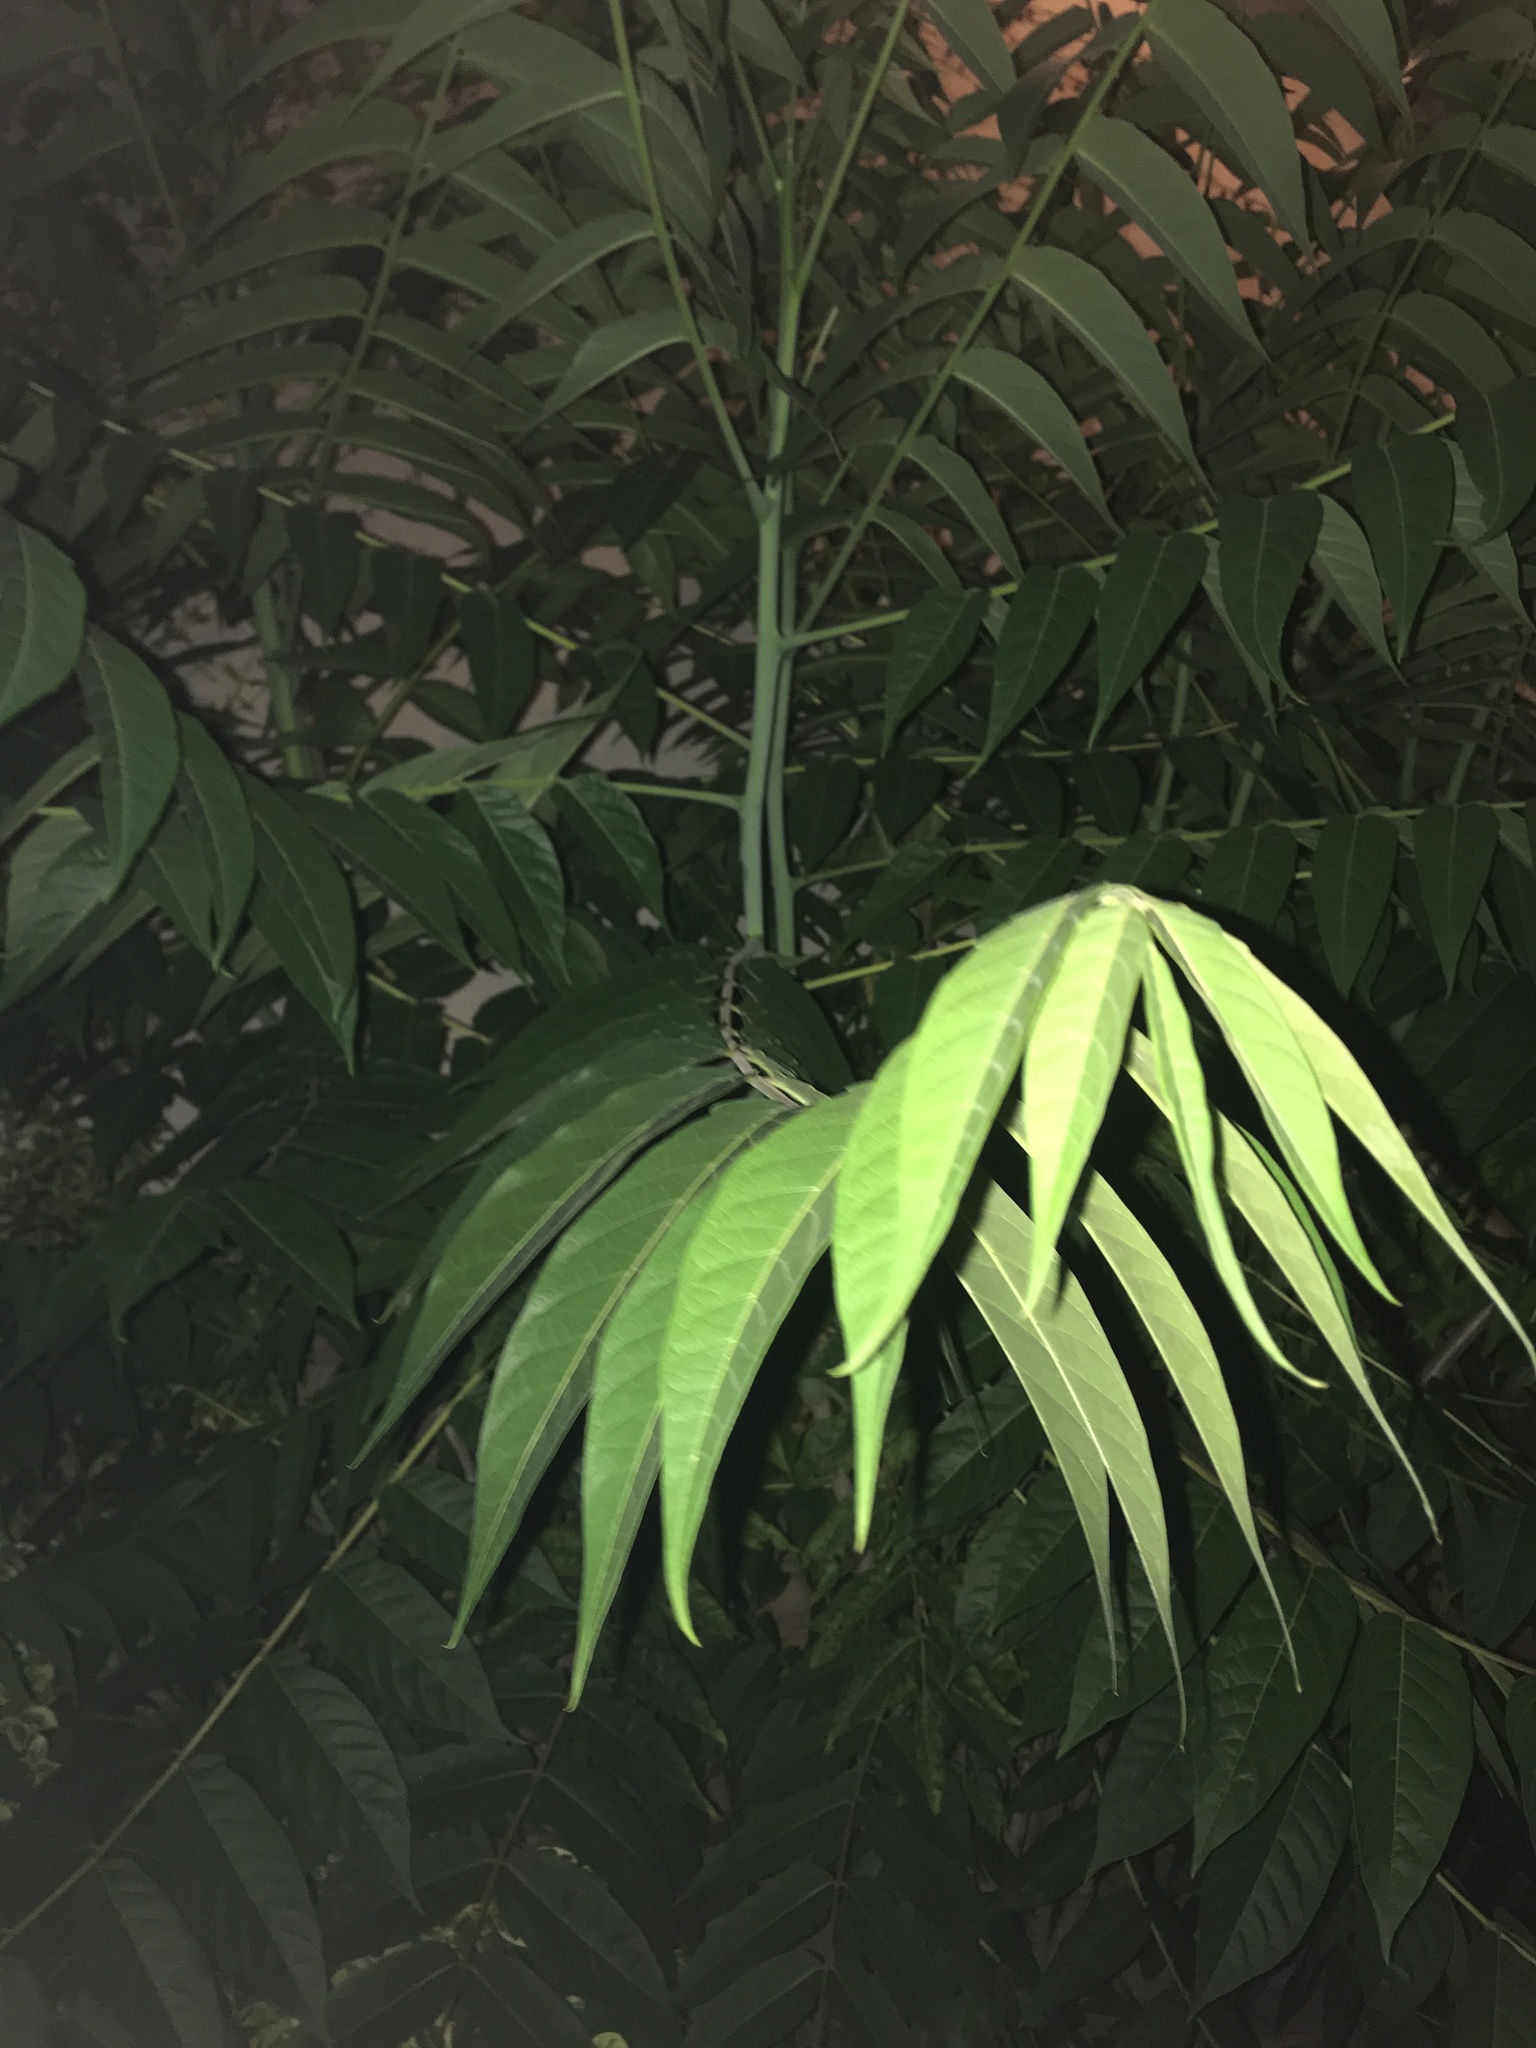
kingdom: Plantae
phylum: Tracheophyta
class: Magnoliopsida
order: Sapindales
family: Simaroubaceae
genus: Ailanthus
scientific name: Ailanthus altissima
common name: Tree-of-heaven
